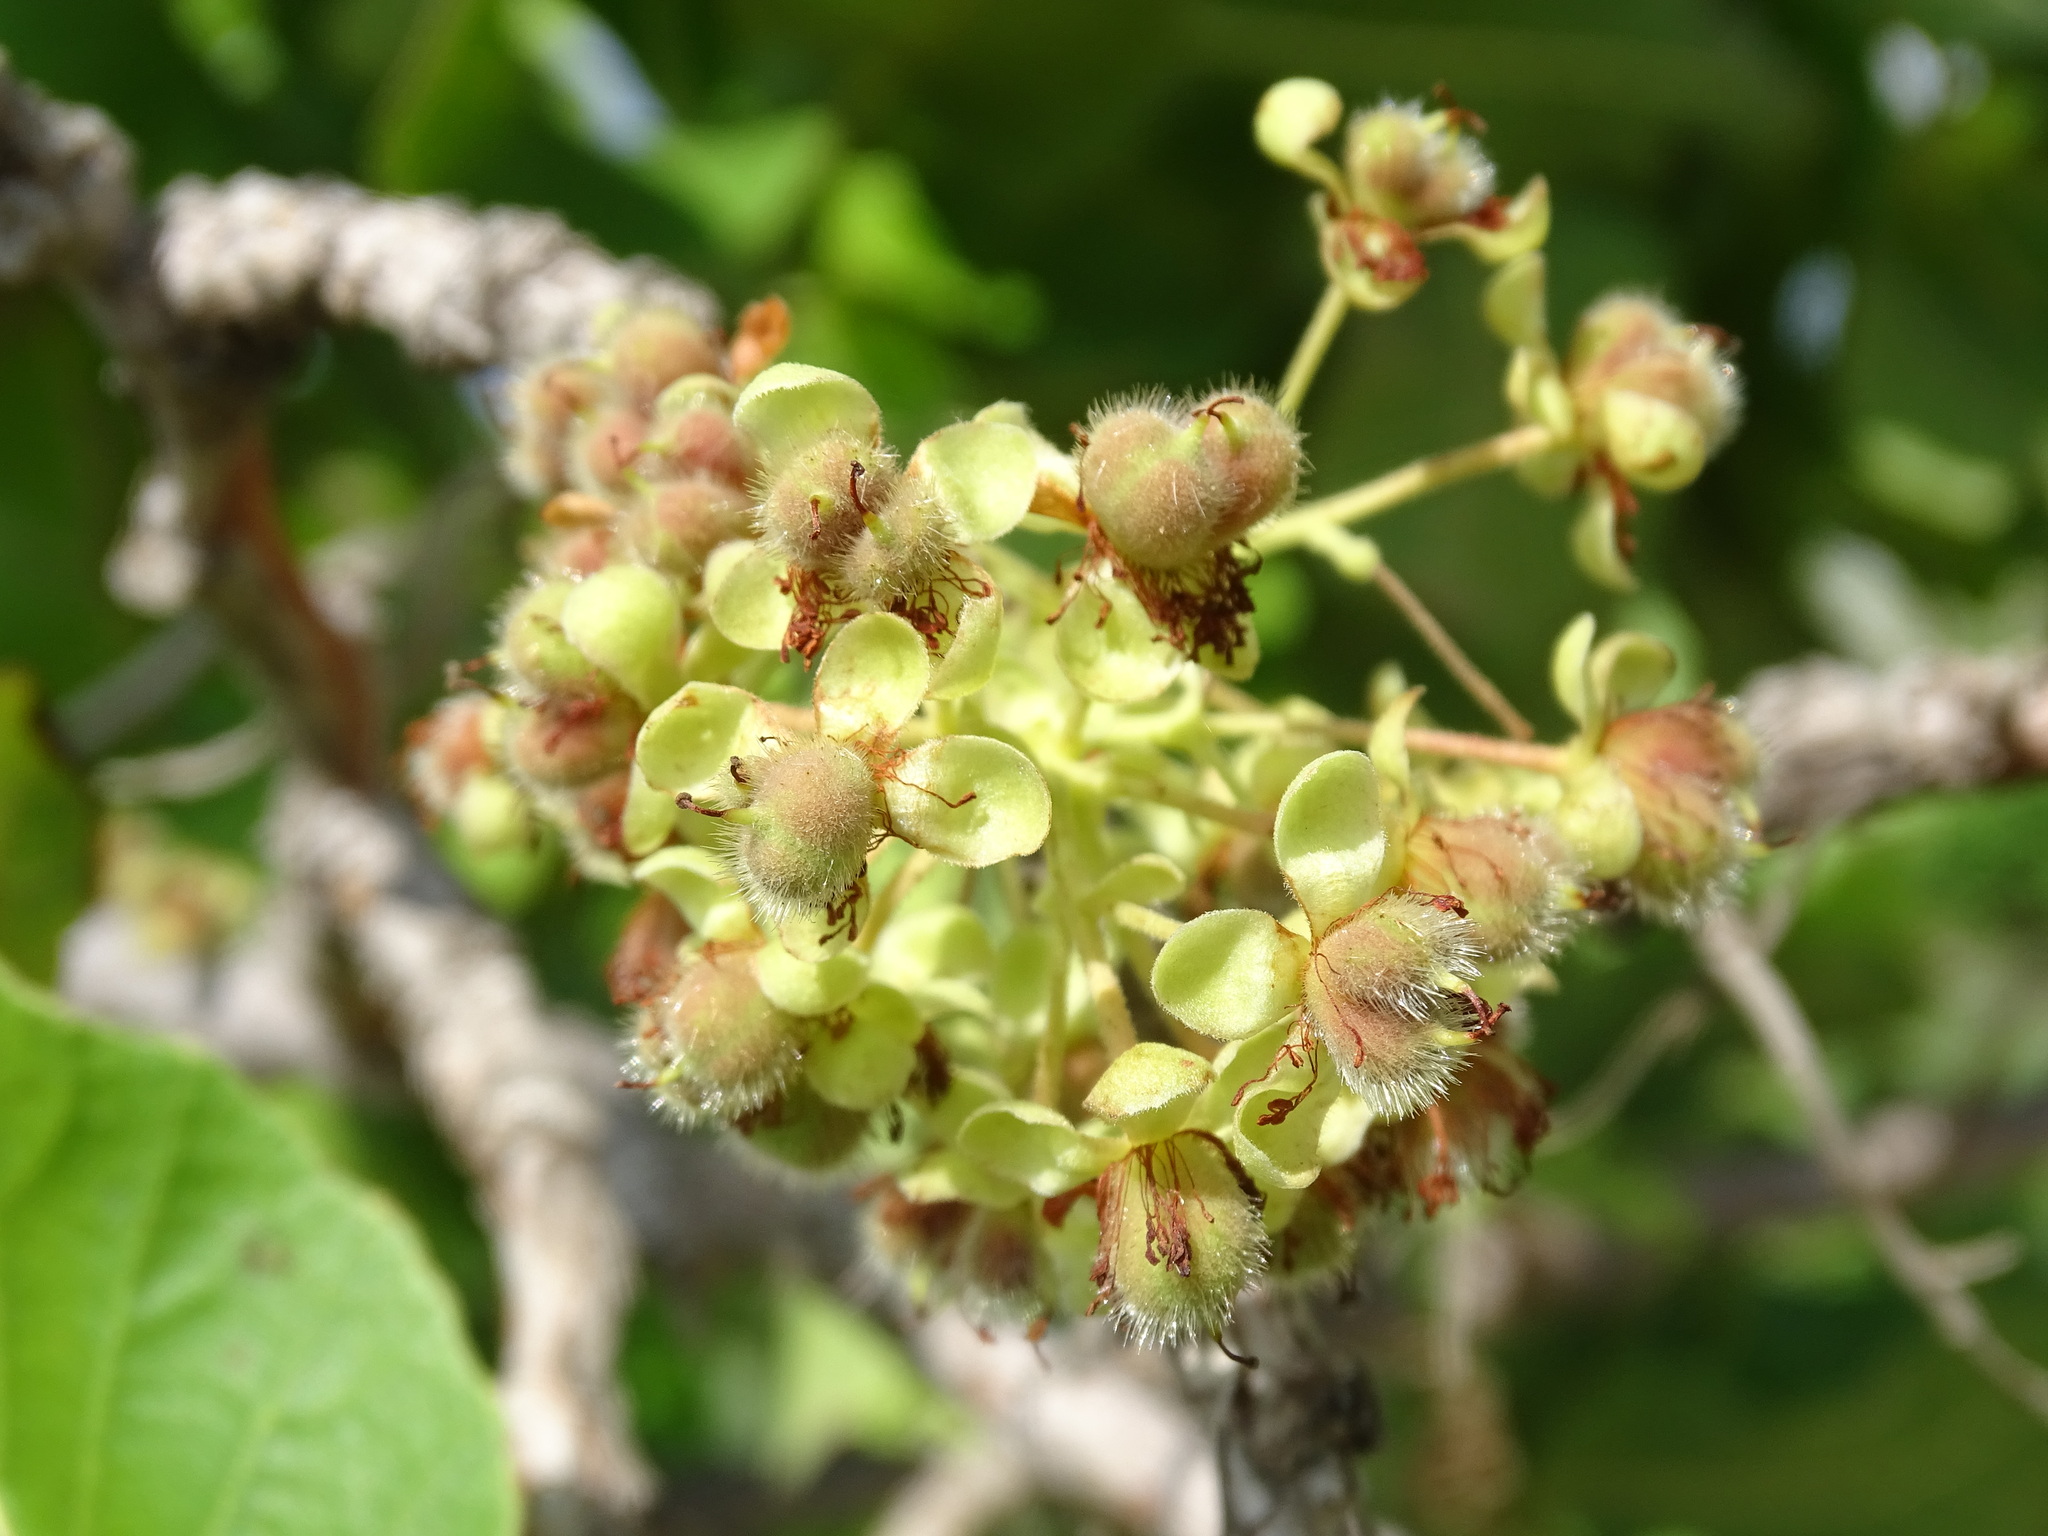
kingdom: Plantae
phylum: Tracheophyta
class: Magnoliopsida
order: Dilleniales
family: Dilleniaceae
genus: Curatella
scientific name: Curatella americana
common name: Sandpaper tree
